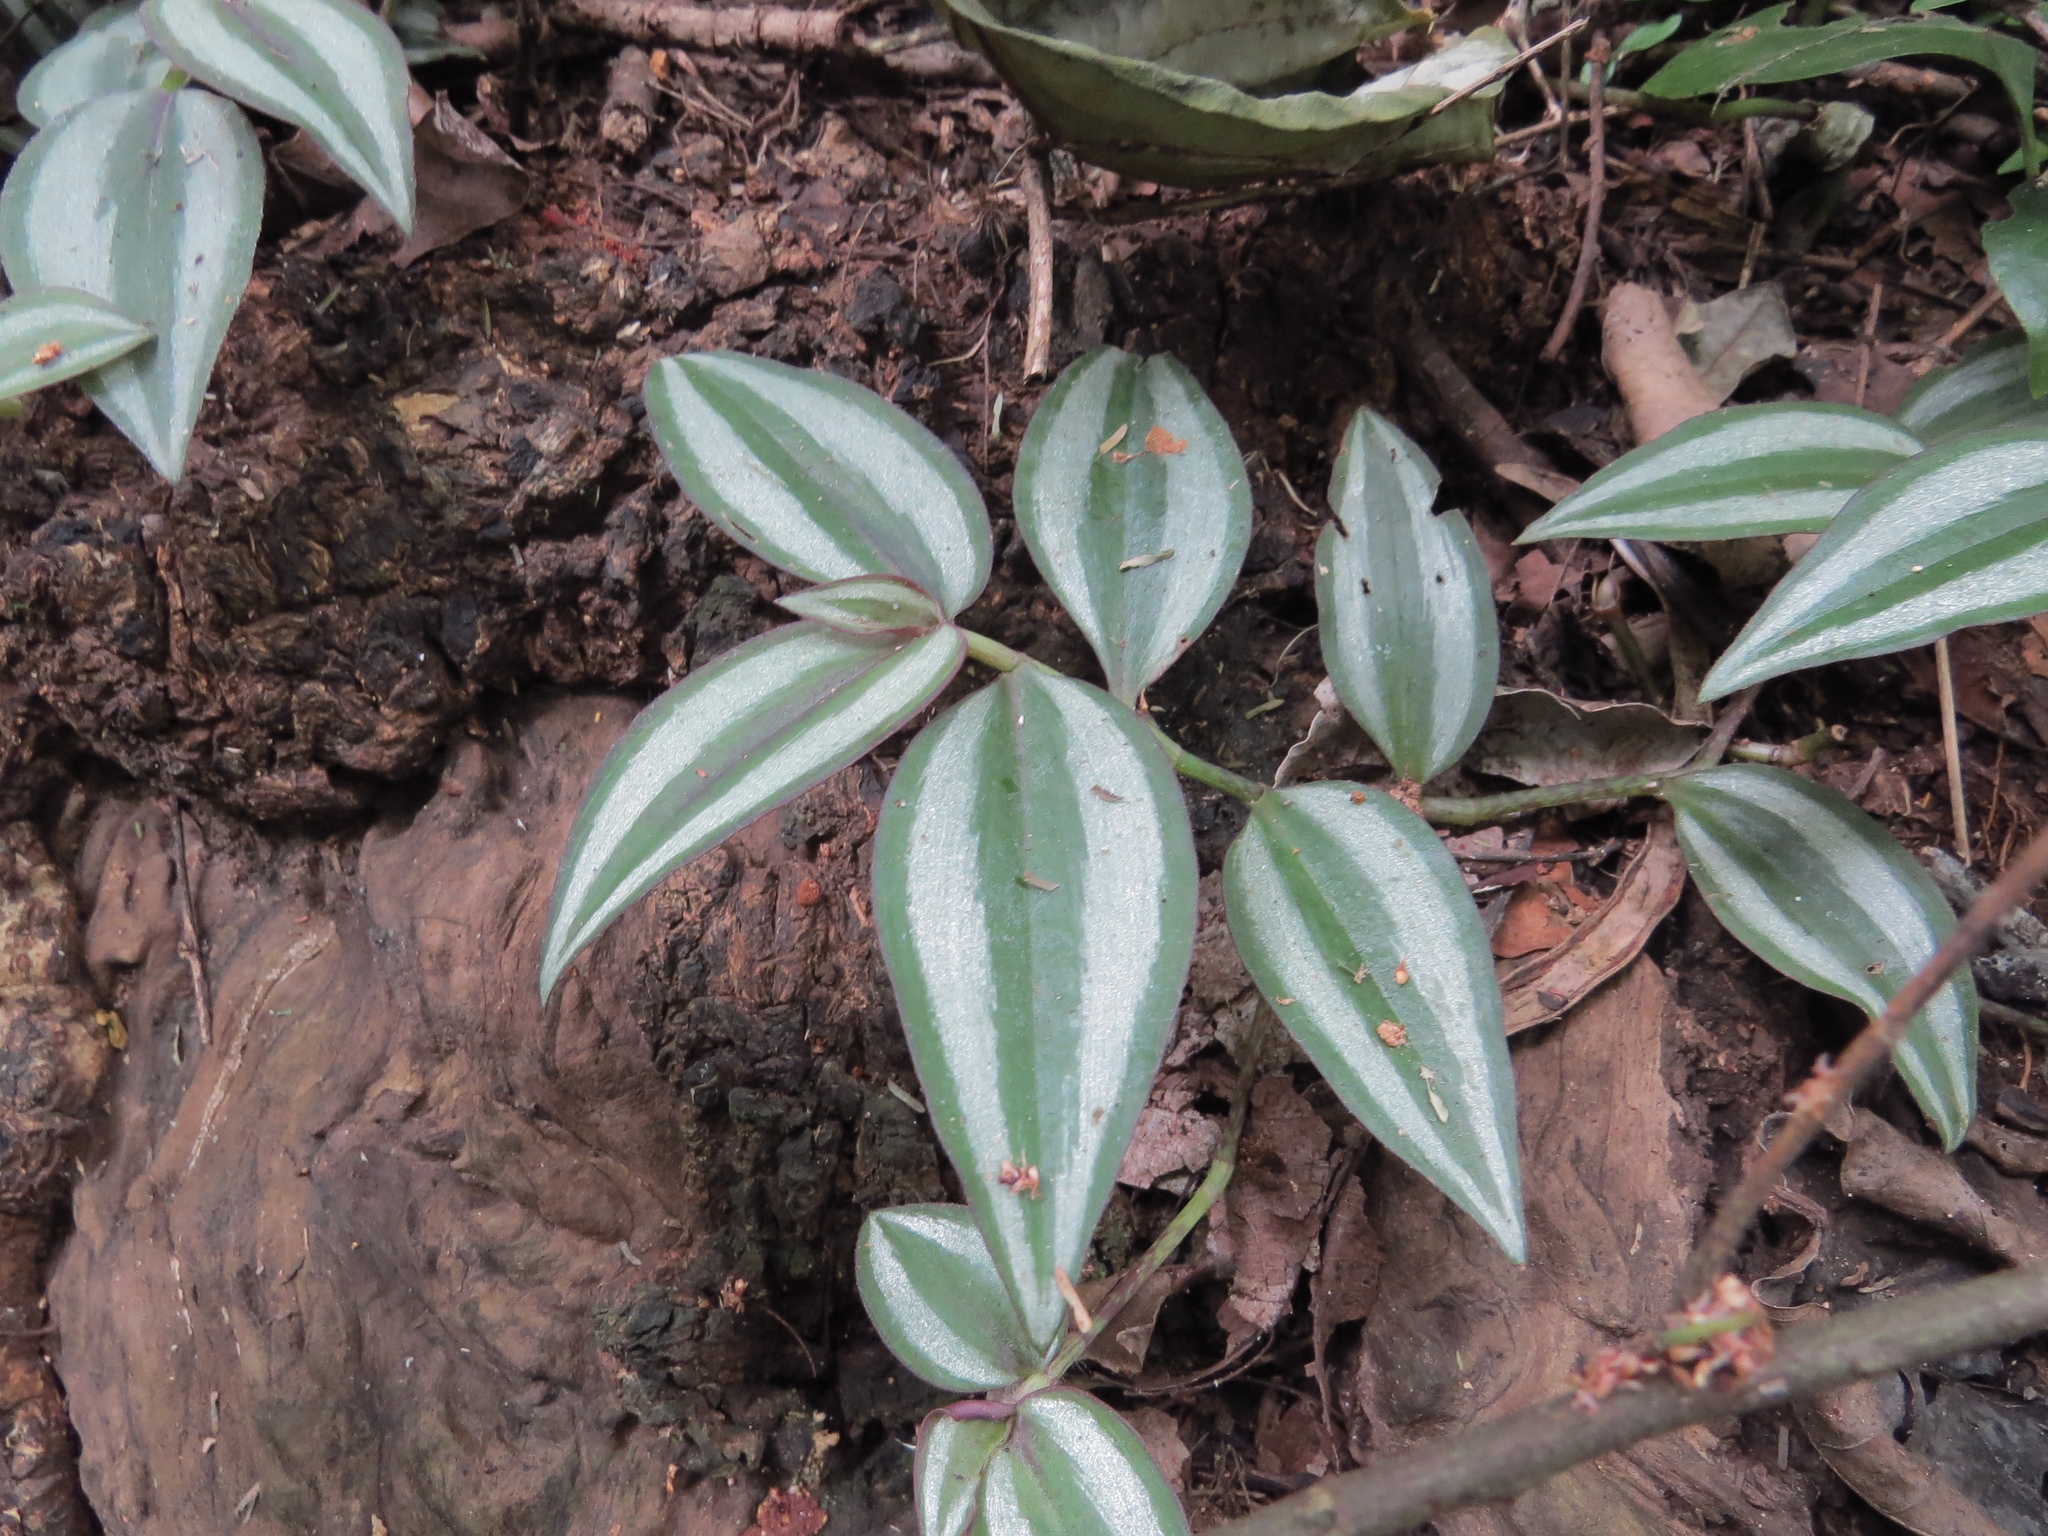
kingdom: Plantae
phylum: Tracheophyta
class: Liliopsida
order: Commelinales
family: Commelinaceae
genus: Tradescantia
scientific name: Tradescantia zebrina
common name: Inchplant
